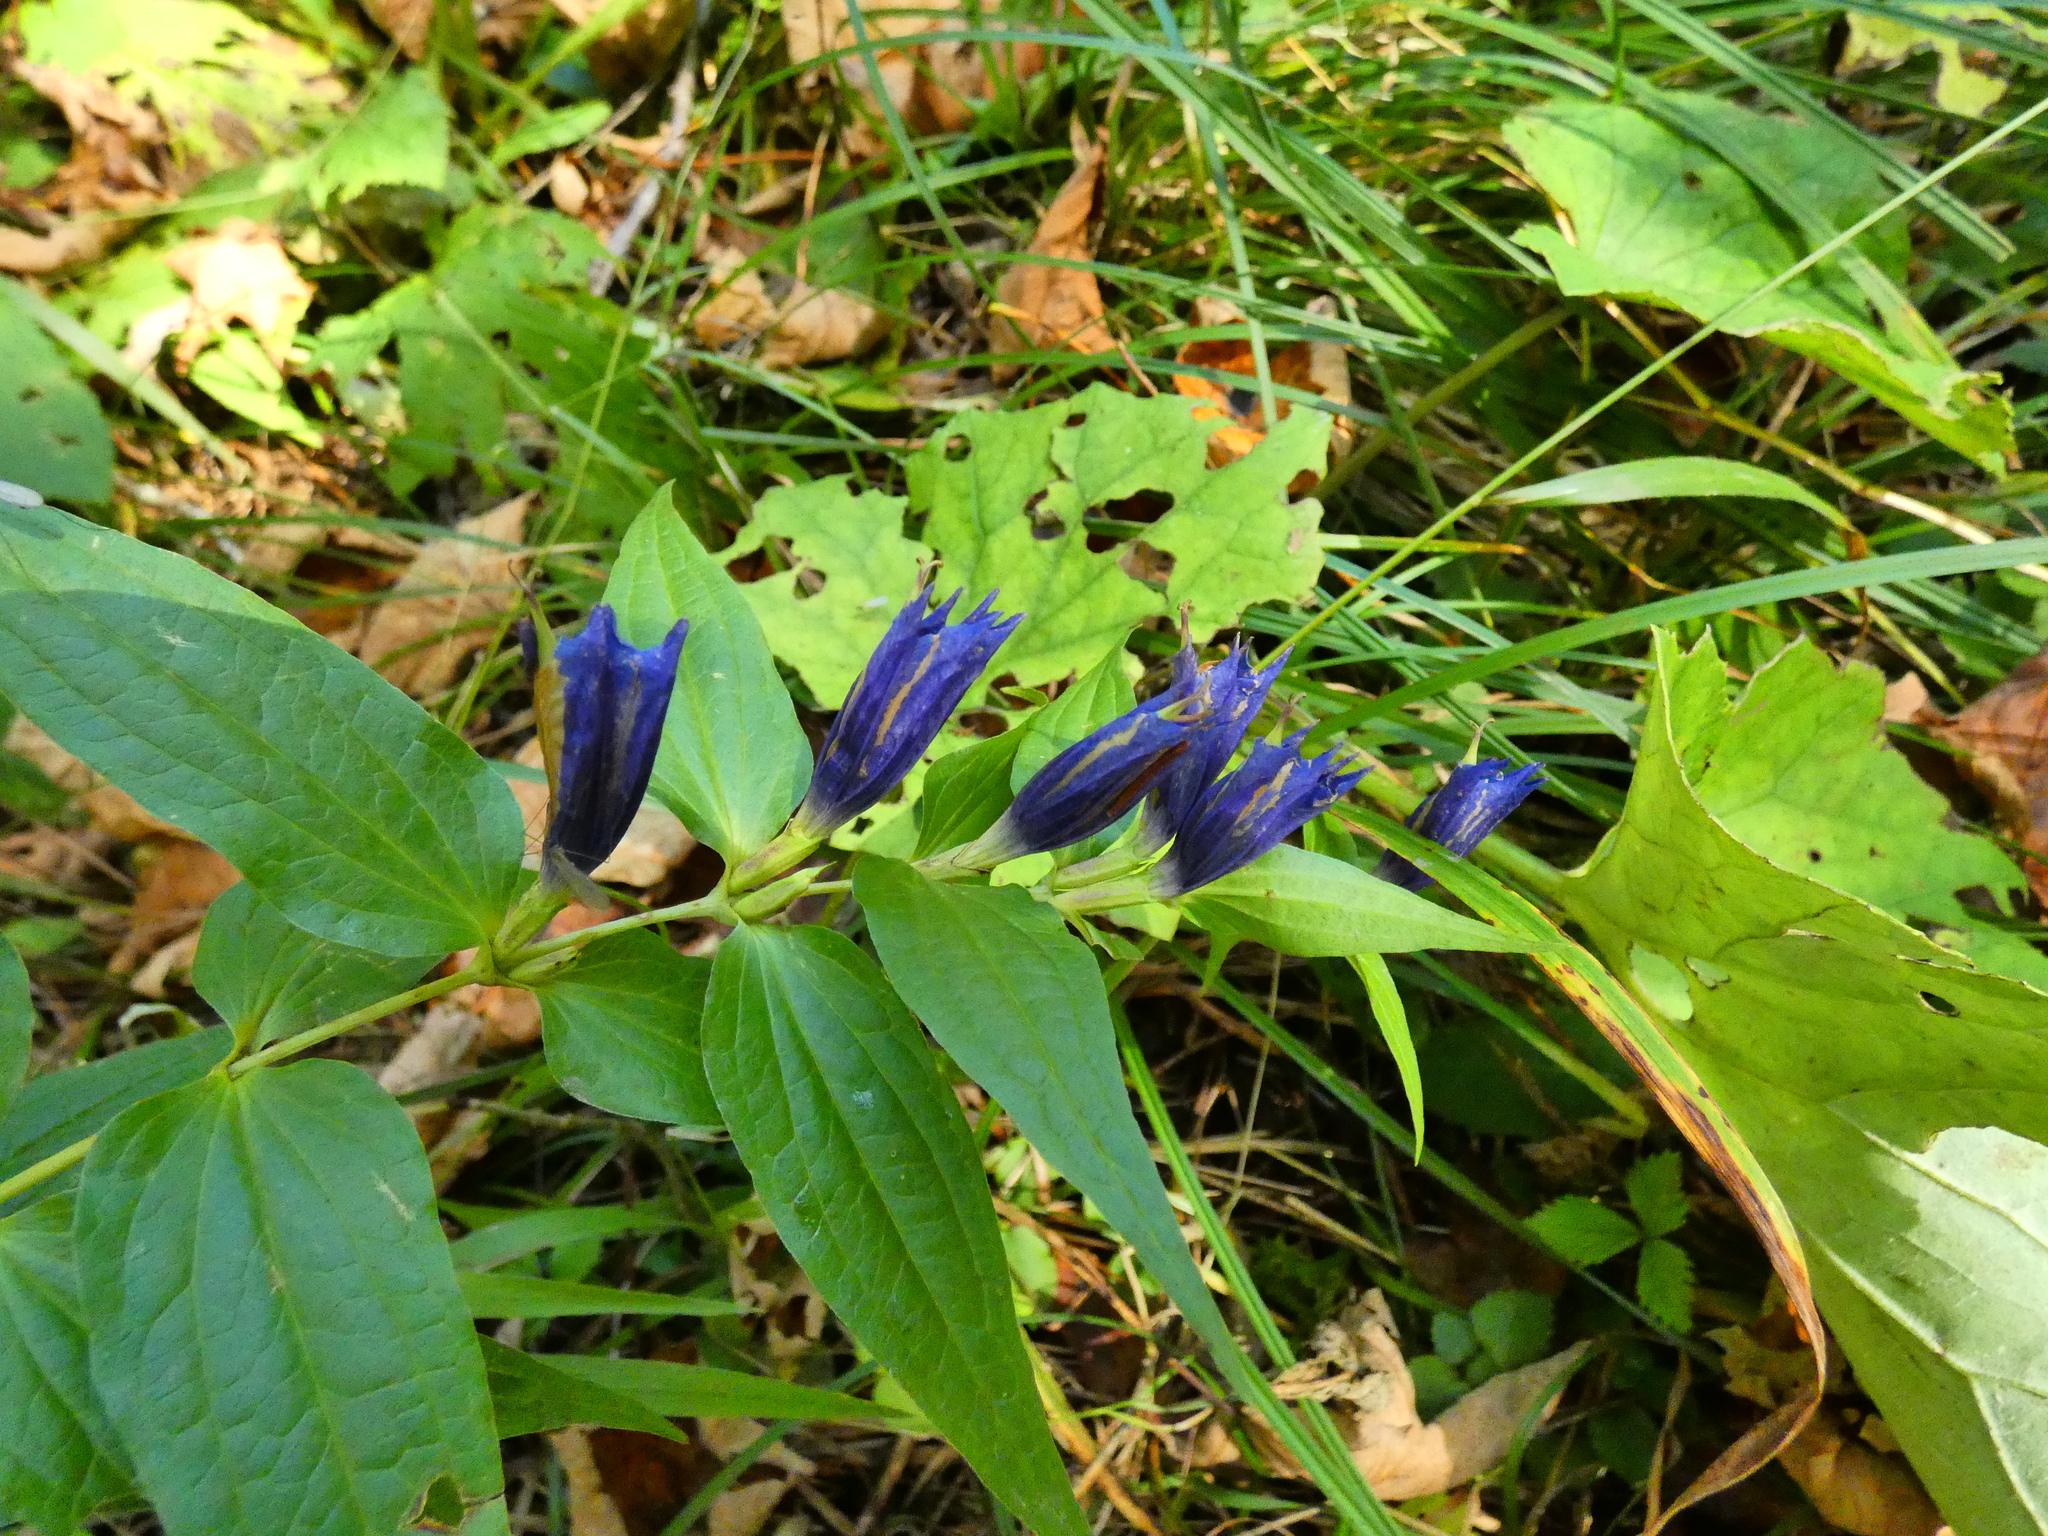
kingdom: Plantae
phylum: Tracheophyta
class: Magnoliopsida
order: Gentianales
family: Gentianaceae
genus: Gentiana
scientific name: Gentiana asclepiadea
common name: Willow gentian
